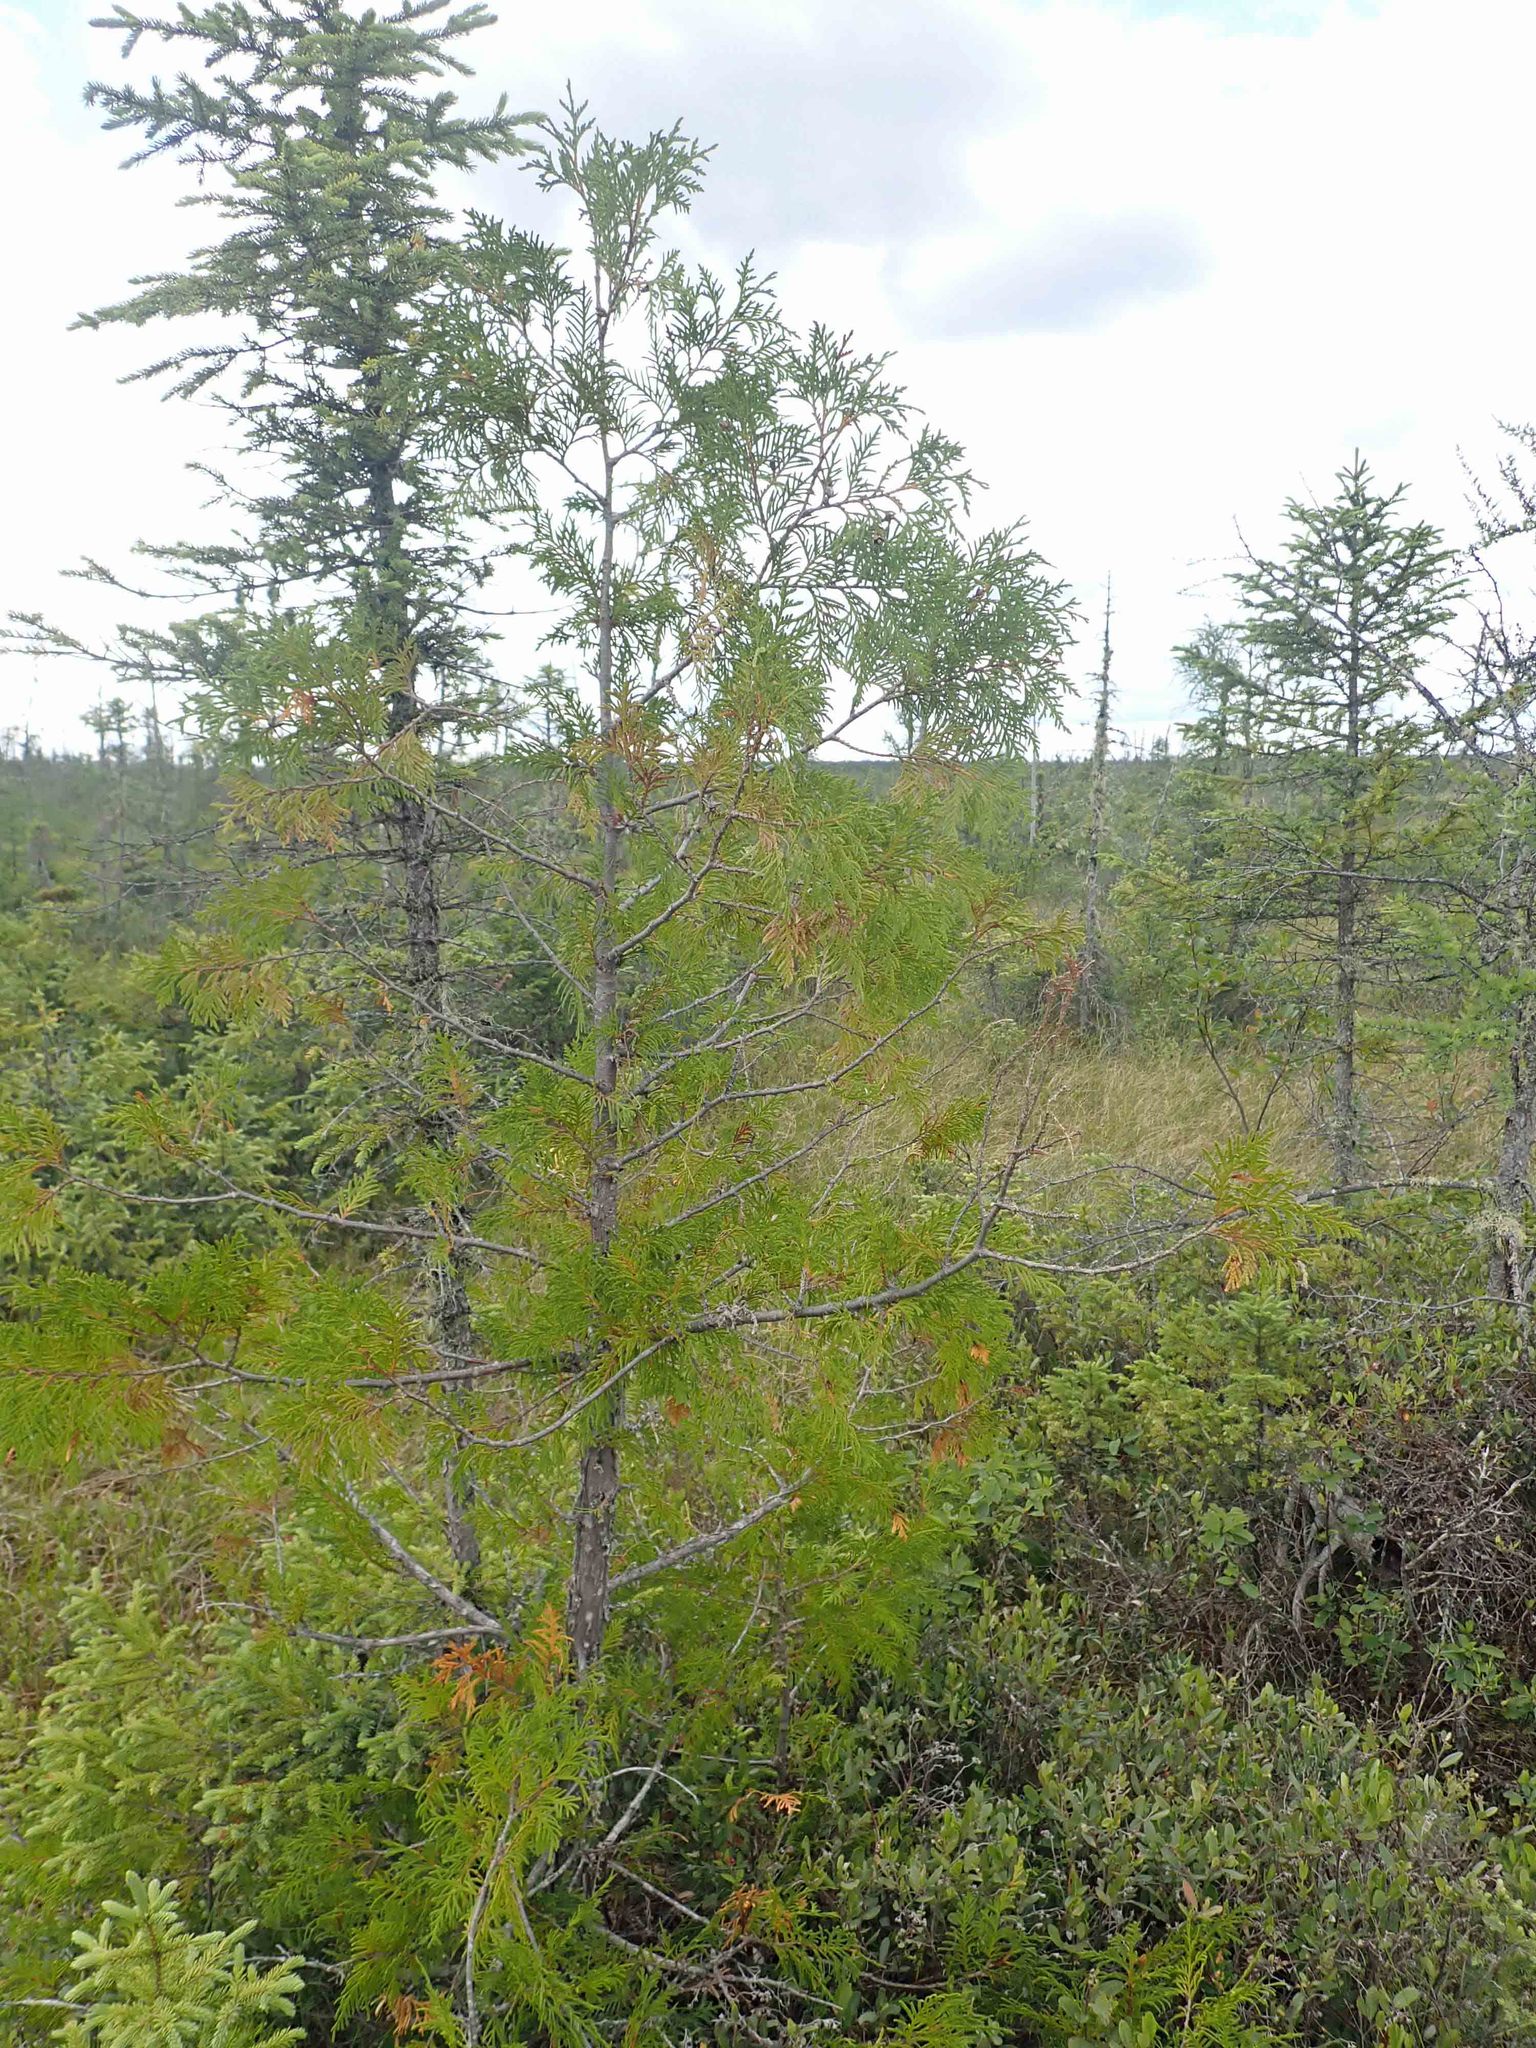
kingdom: Plantae
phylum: Tracheophyta
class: Pinopsida
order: Pinales
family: Cupressaceae
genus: Thuja
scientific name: Thuja occidentalis
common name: Northern white-cedar
